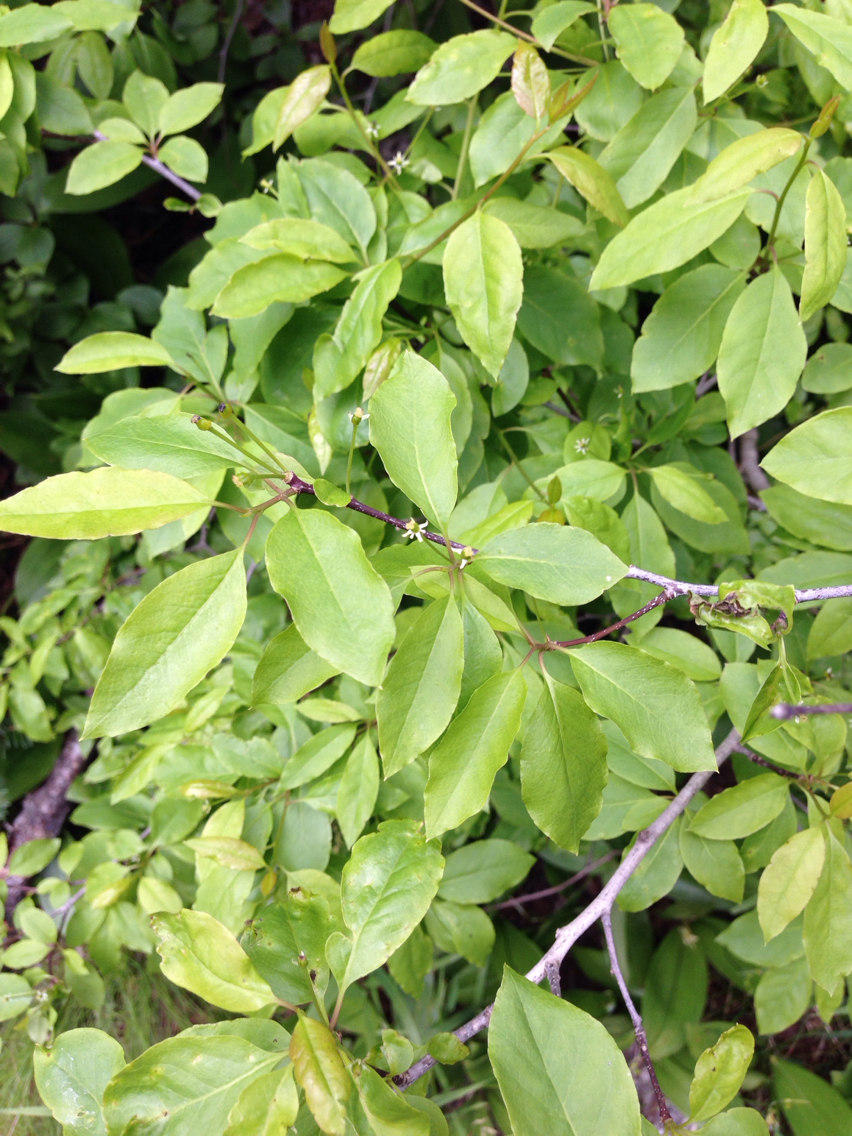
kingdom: Plantae
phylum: Tracheophyta
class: Magnoliopsida
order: Aquifoliales
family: Aquifoliaceae
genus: Ilex
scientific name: Ilex mucronata
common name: Catberry
